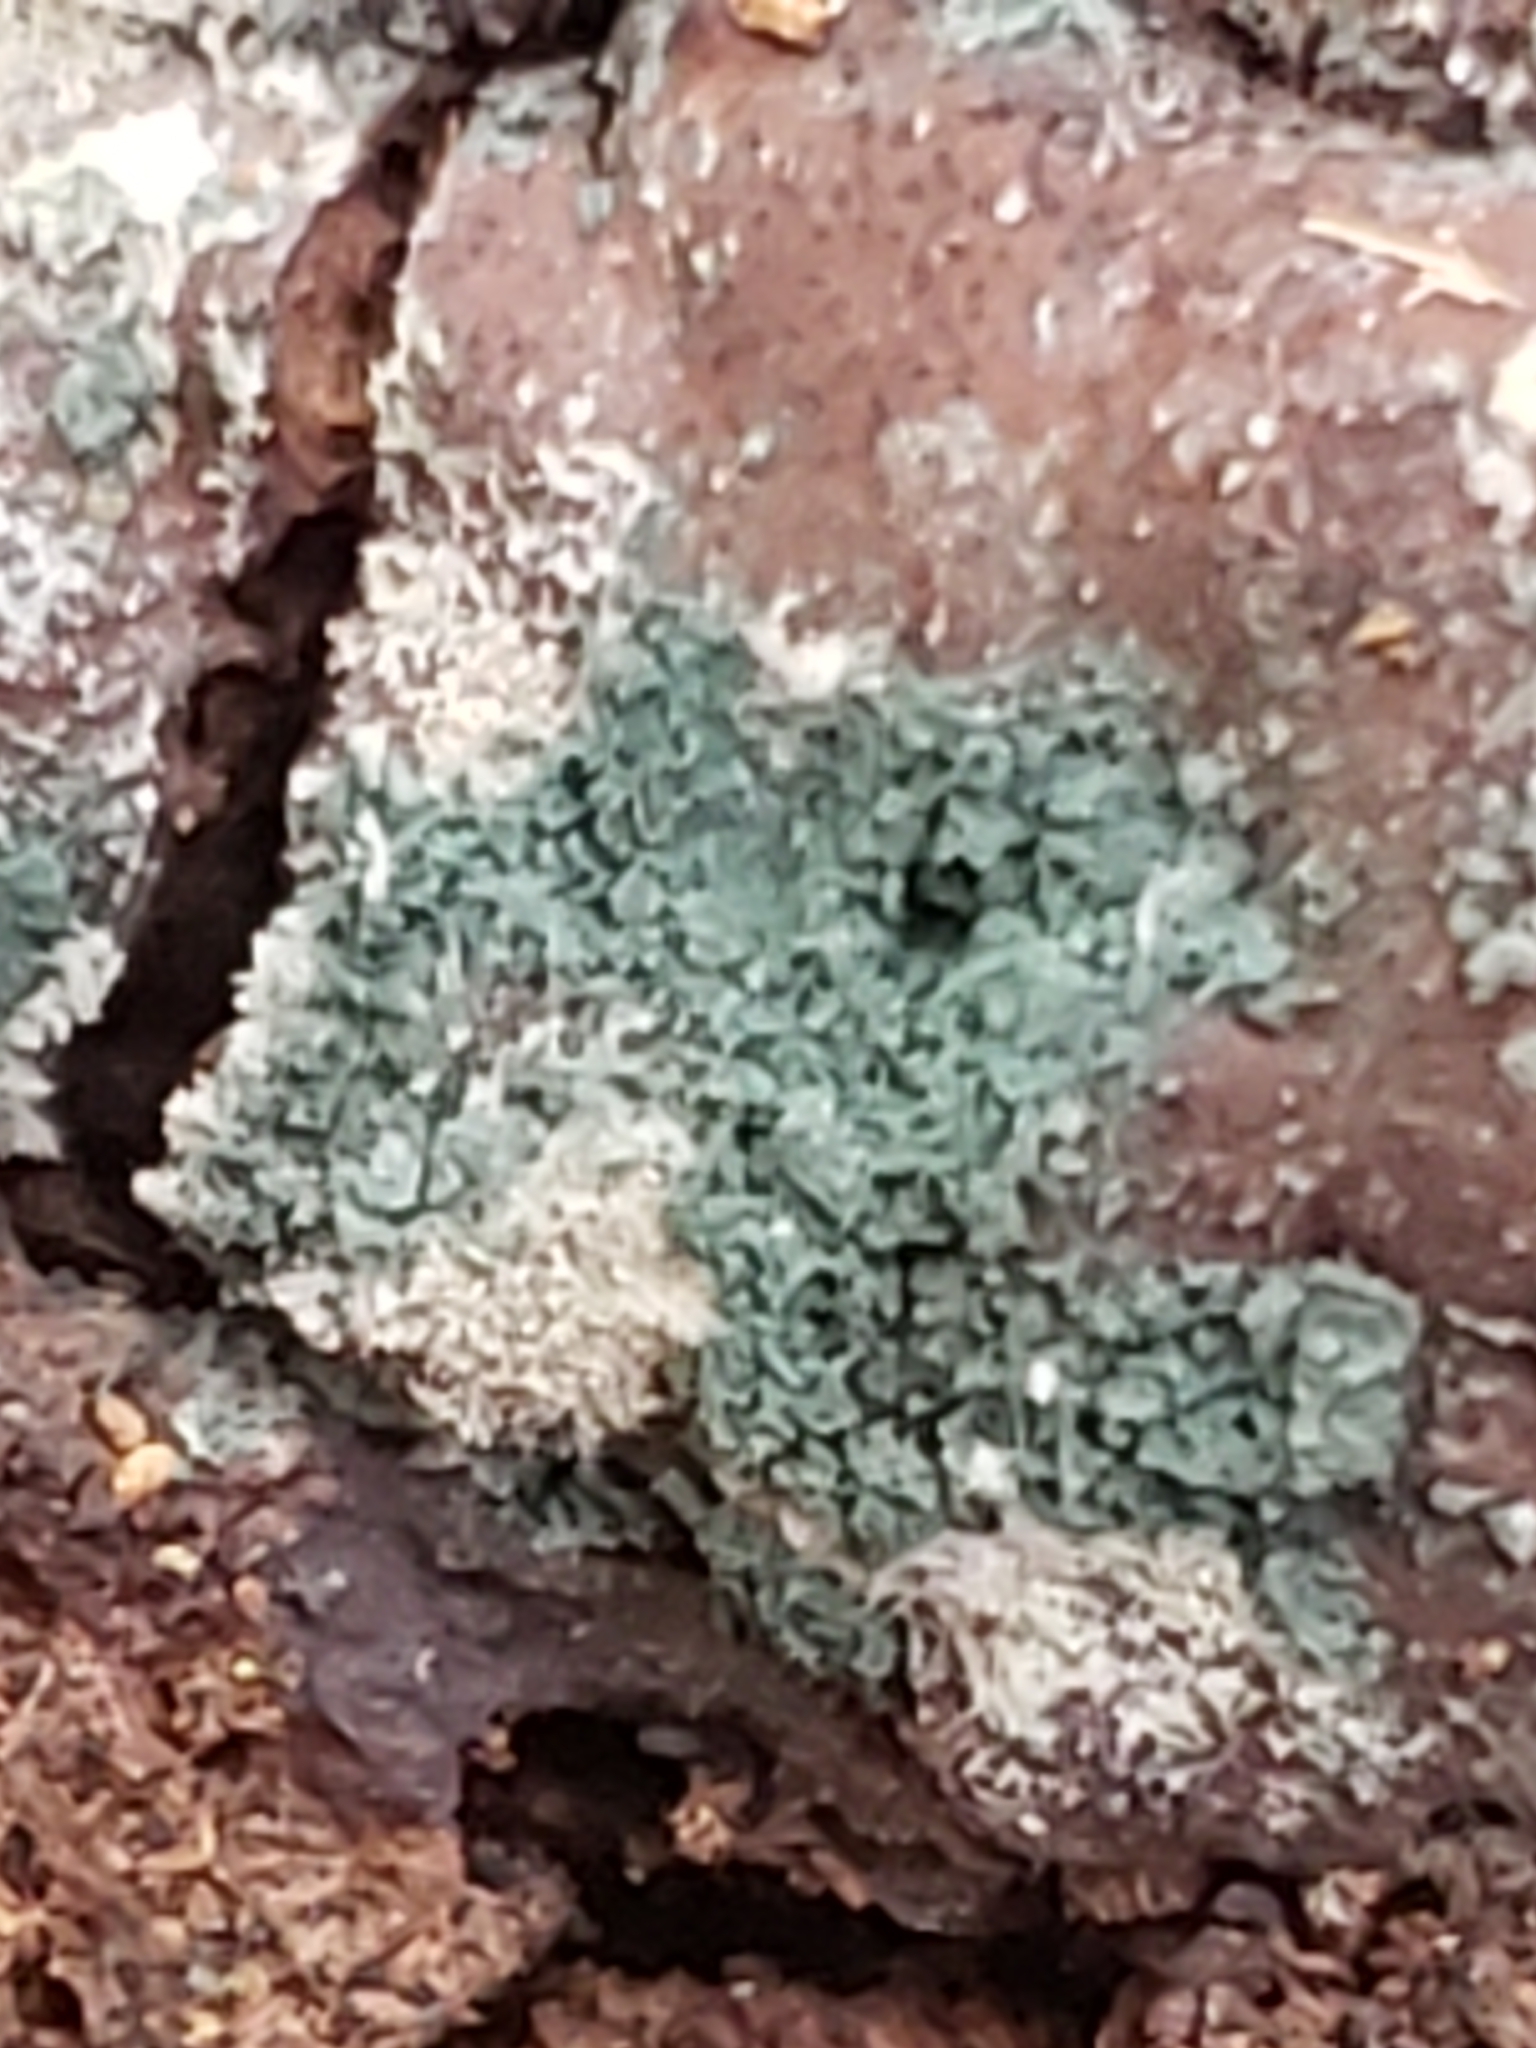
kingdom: Fungi
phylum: Ascomycota
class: Sordariomycetes
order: Hypocreales
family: Hypocreaceae
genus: Trichoderma
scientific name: Trichoderma viride
